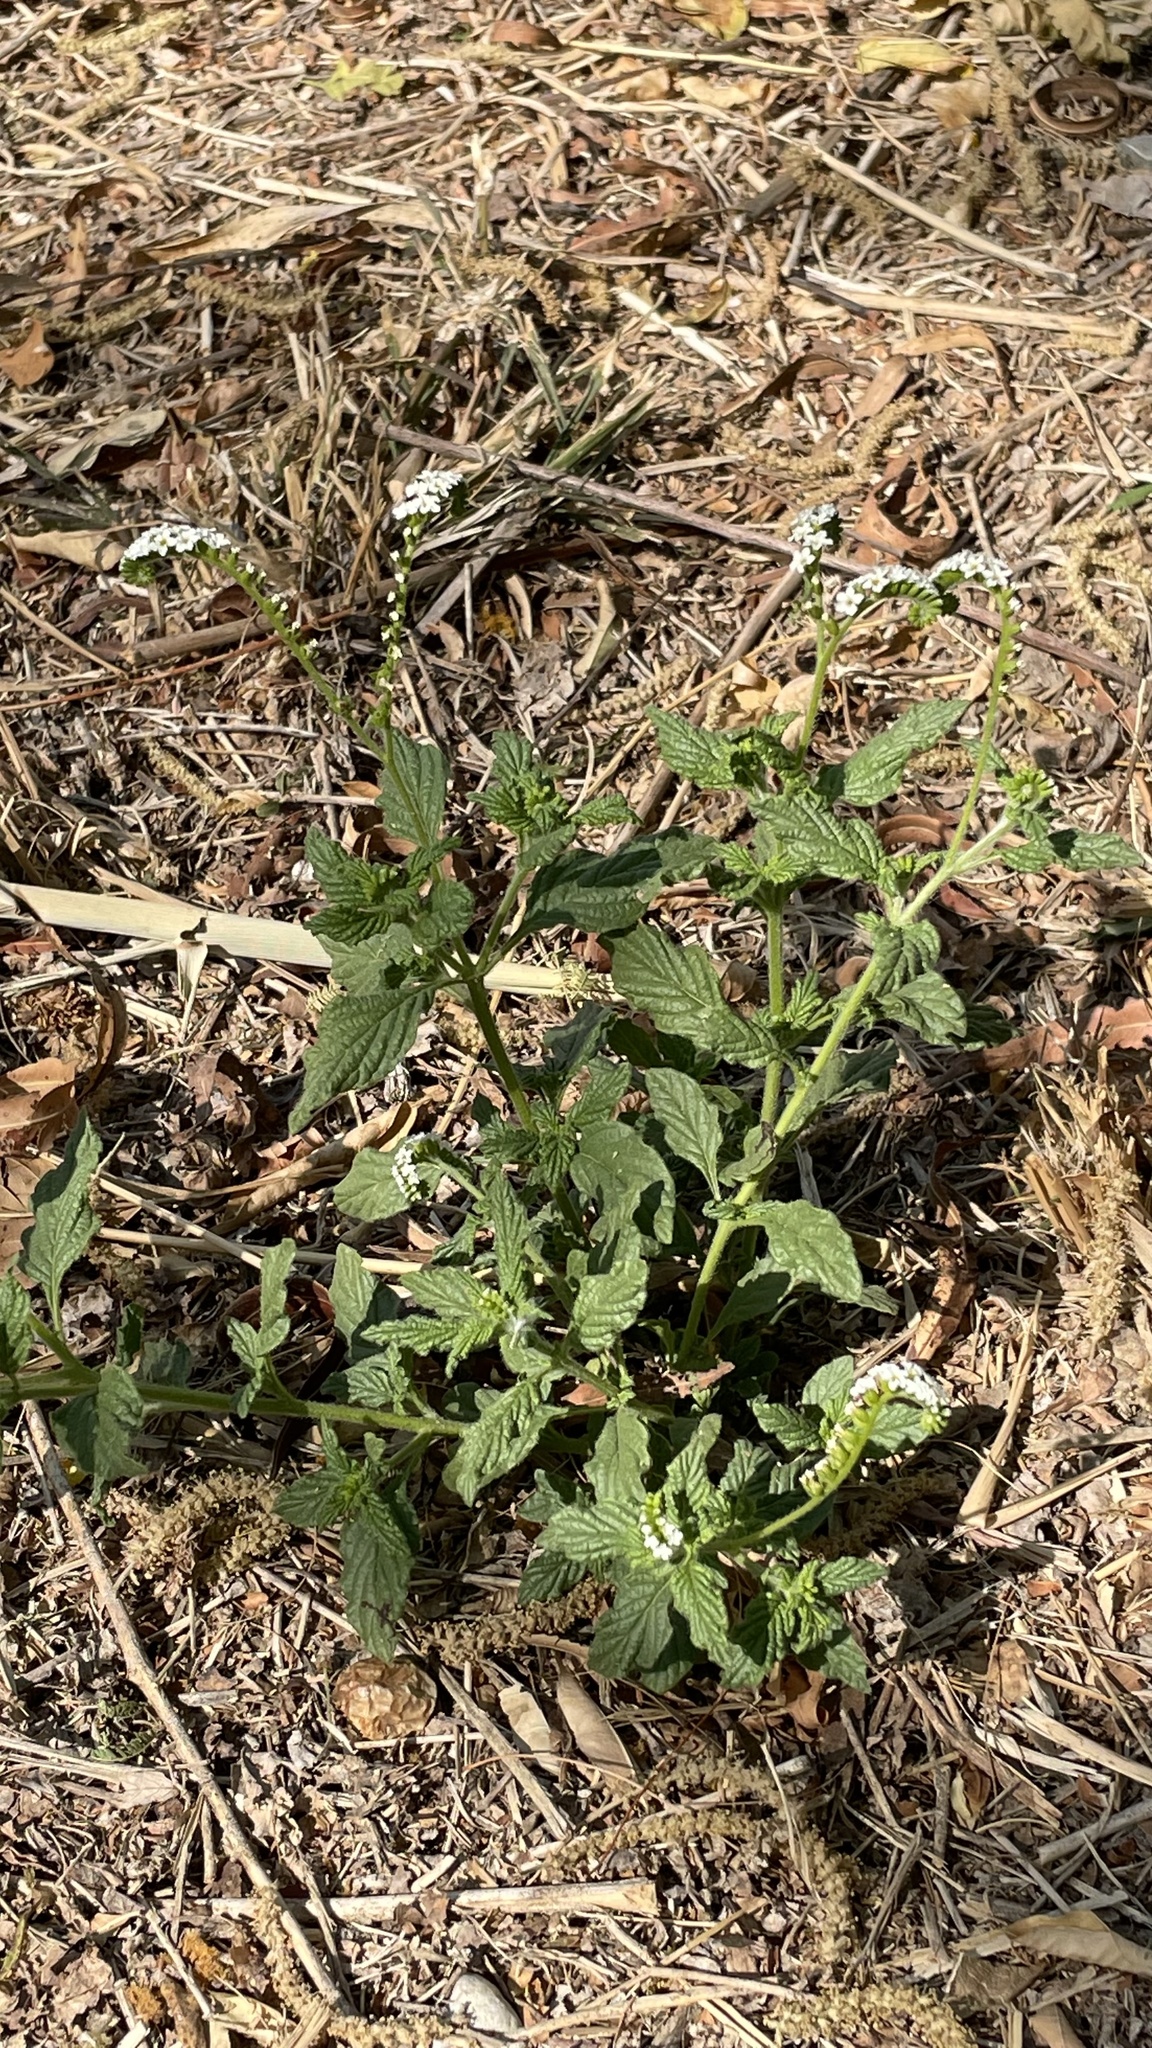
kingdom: Plantae
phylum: Tracheophyta
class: Magnoliopsida
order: Boraginales
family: Heliotropiaceae
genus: Heliotropium
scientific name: Heliotropium angiospermum
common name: Eye bright
